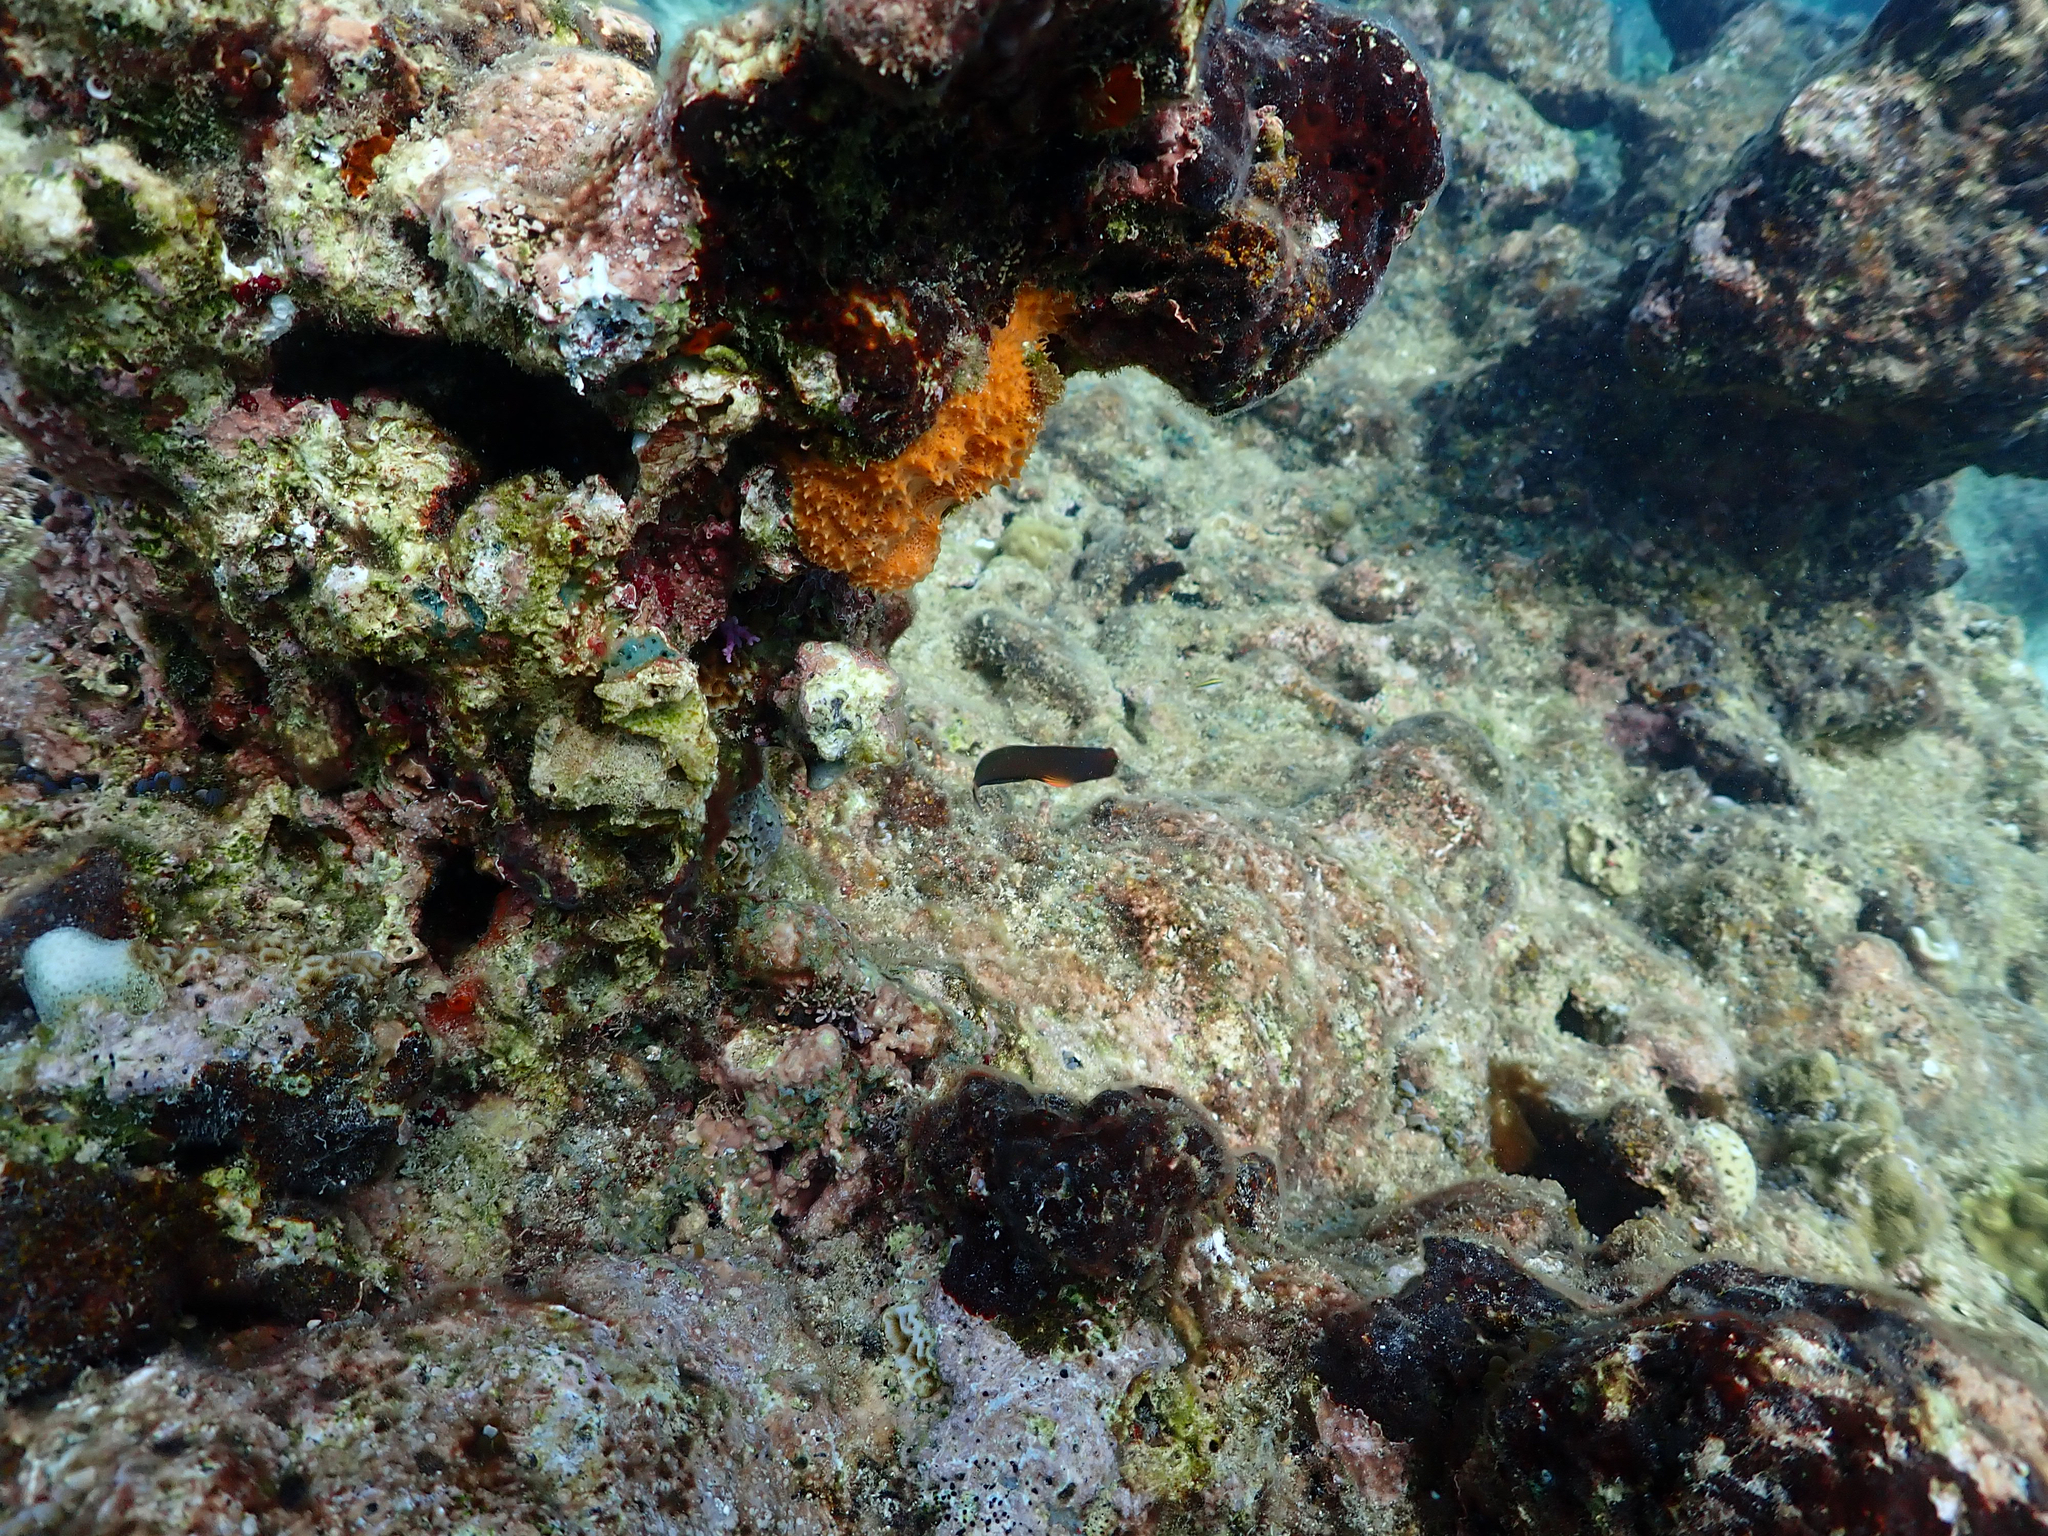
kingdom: Animalia
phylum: Porifera
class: Demospongiae
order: Scopalinida
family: Scopalinidae
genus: Scopalina
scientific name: Scopalina ruetzleri
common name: Orange lumpy encrusting sponge
